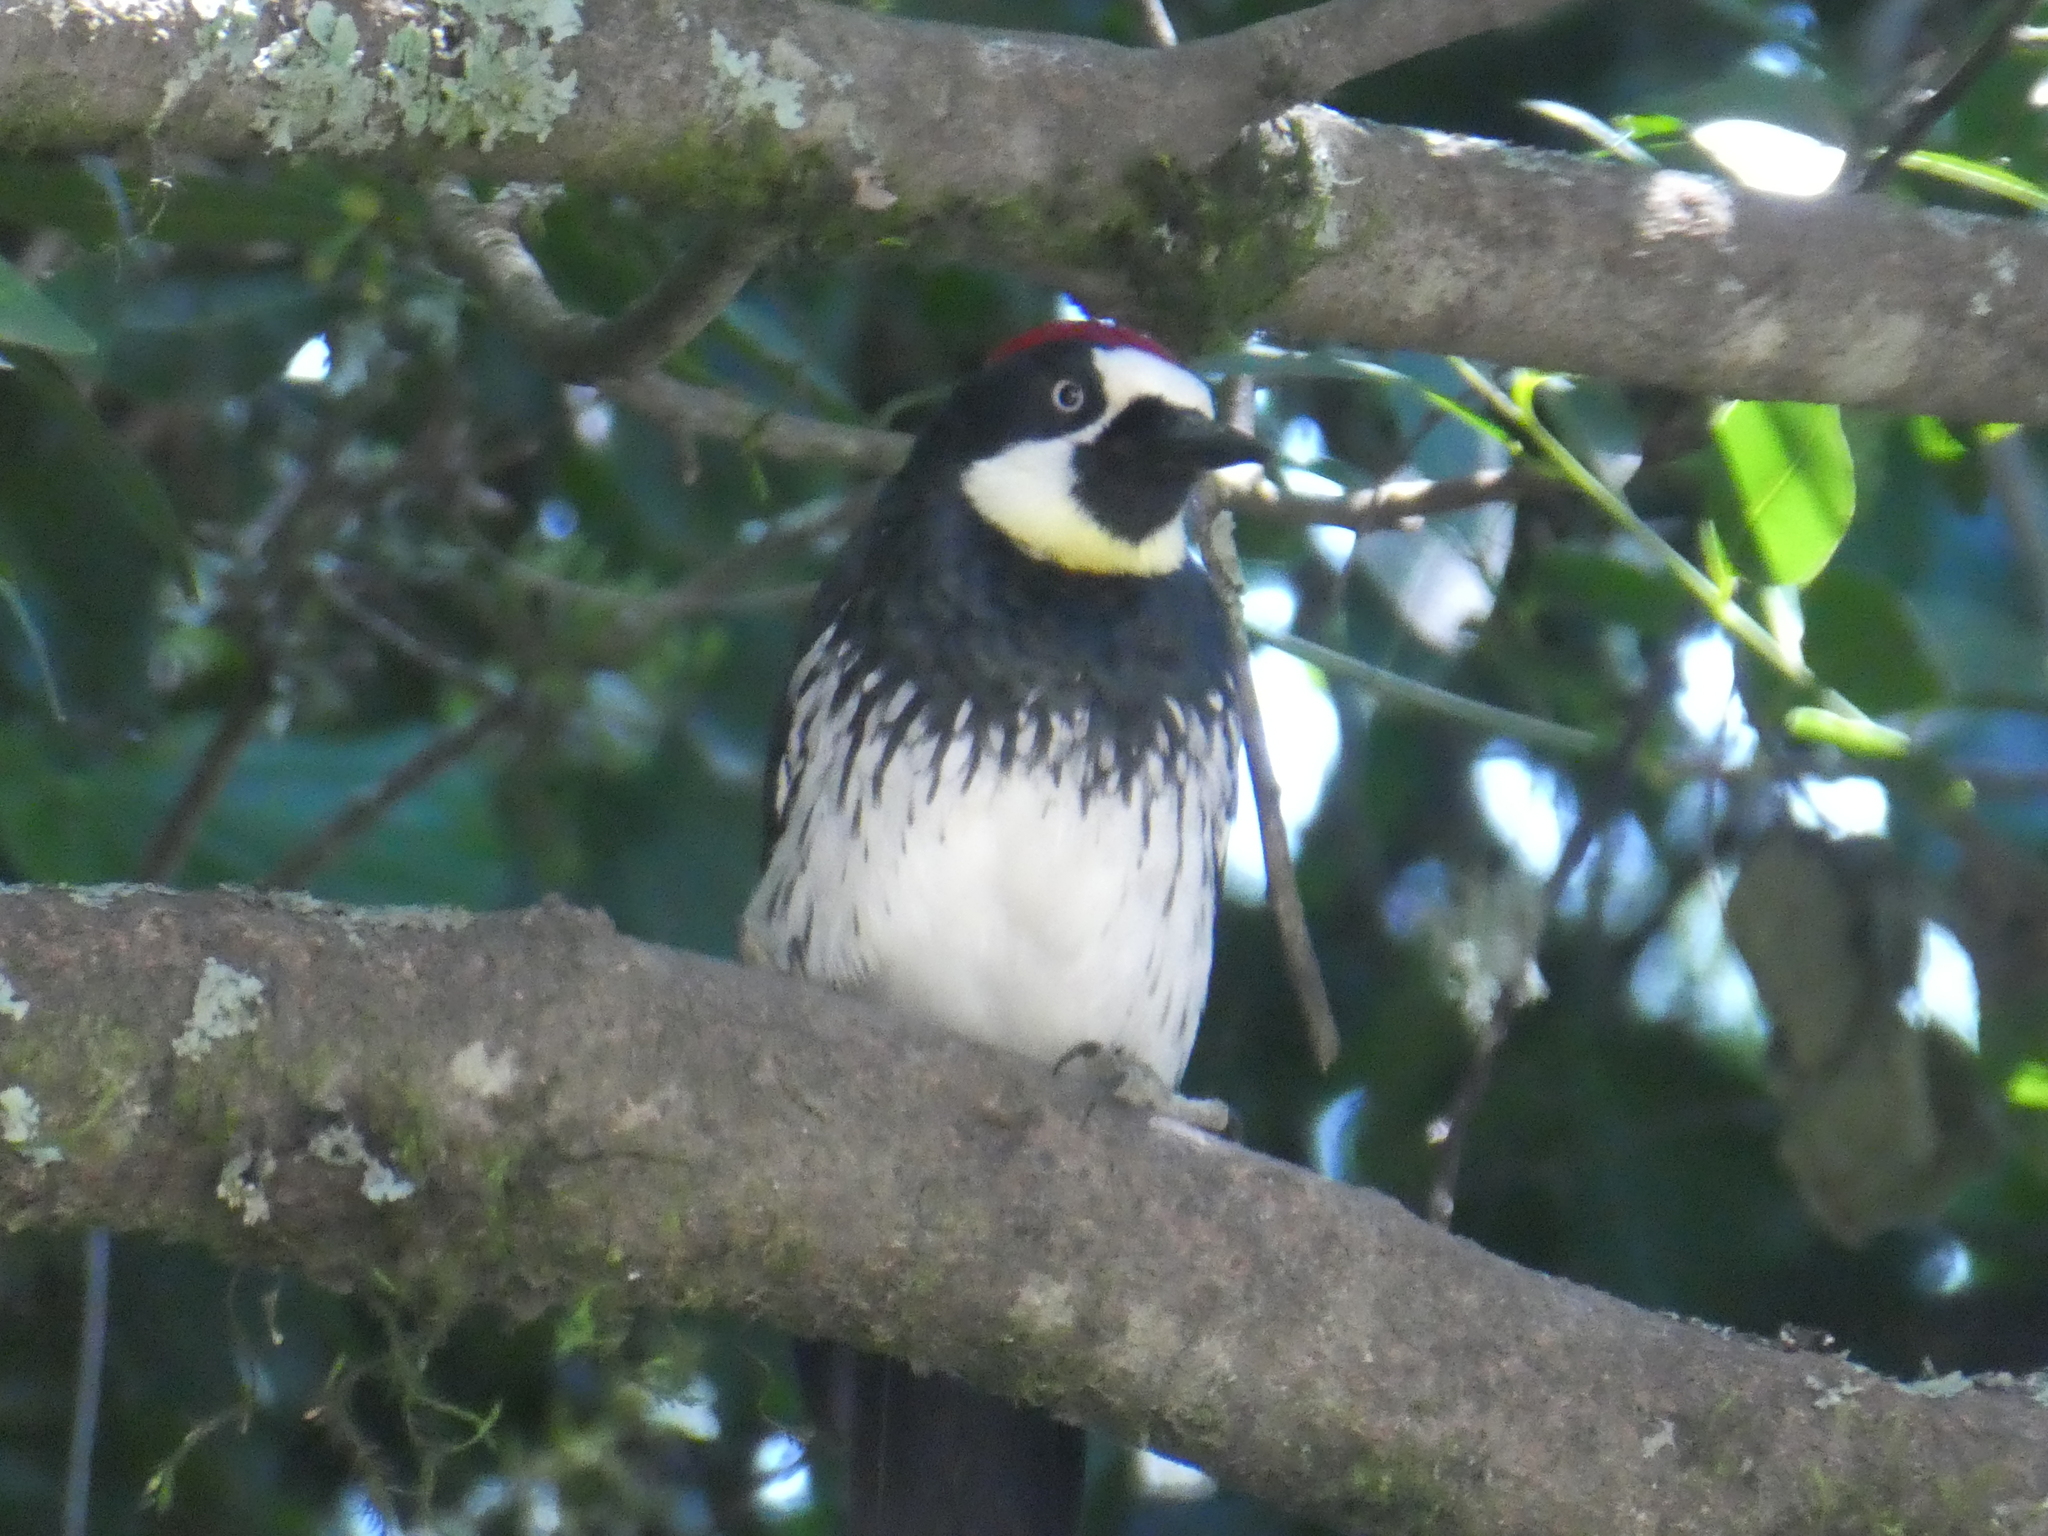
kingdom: Animalia
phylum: Chordata
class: Aves
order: Piciformes
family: Picidae
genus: Melanerpes
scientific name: Melanerpes formicivorus
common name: Acorn woodpecker
